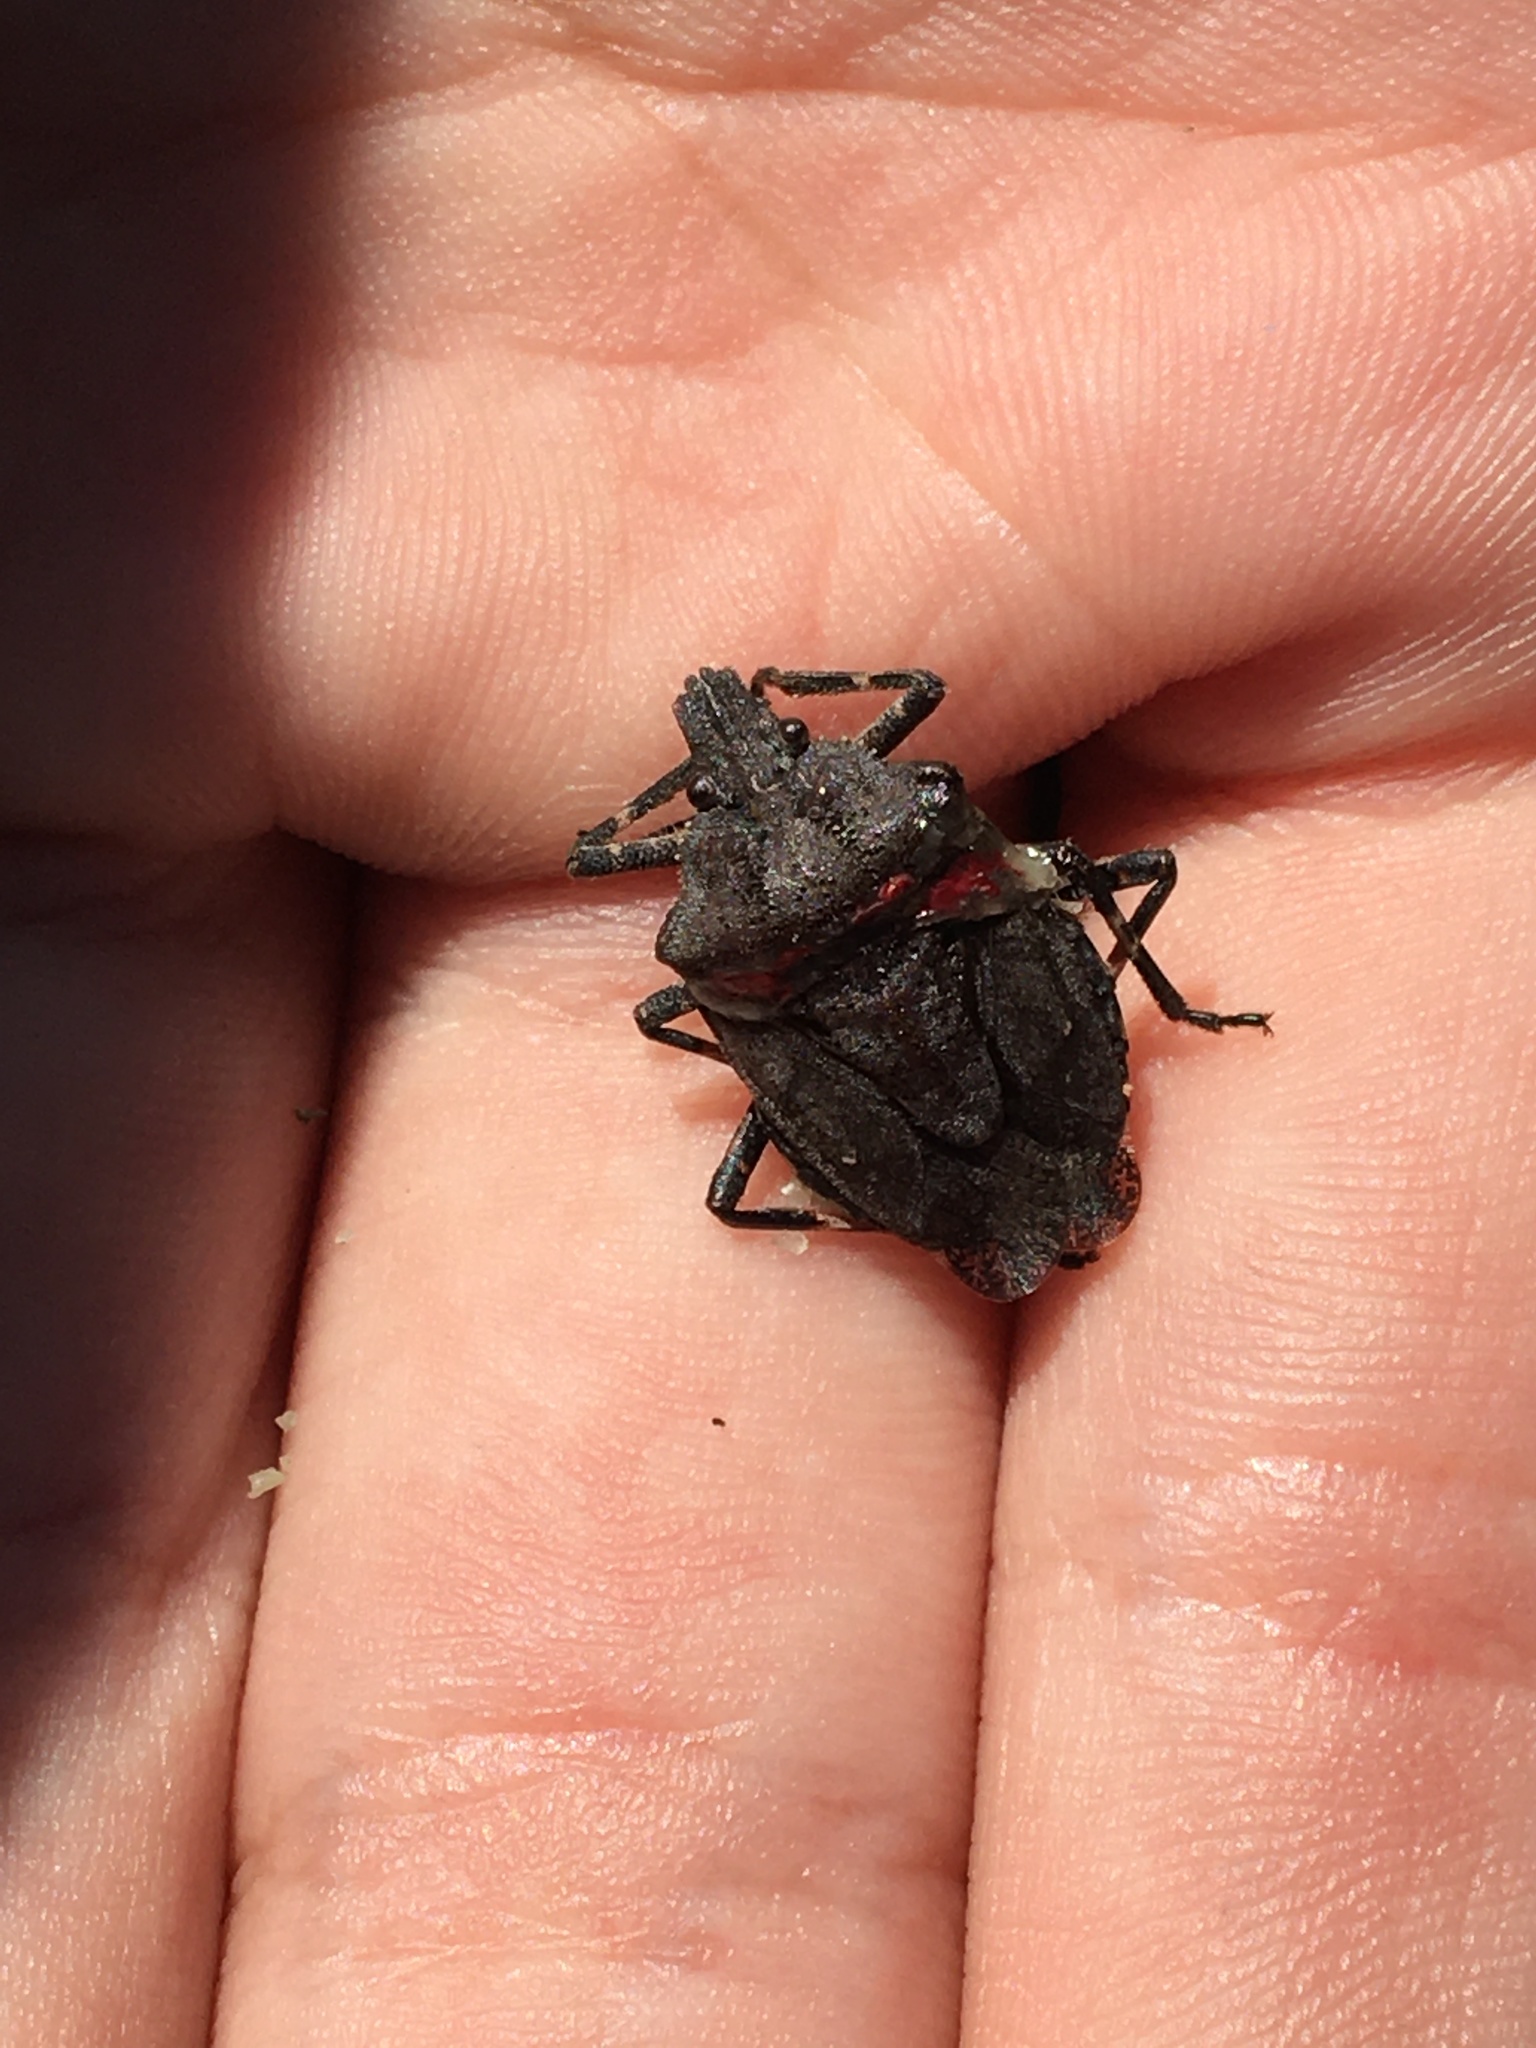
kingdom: Animalia
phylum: Arthropoda
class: Insecta
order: Hemiptera
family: Pentatomidae
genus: Brochymena
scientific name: Brochymena carolinensis
